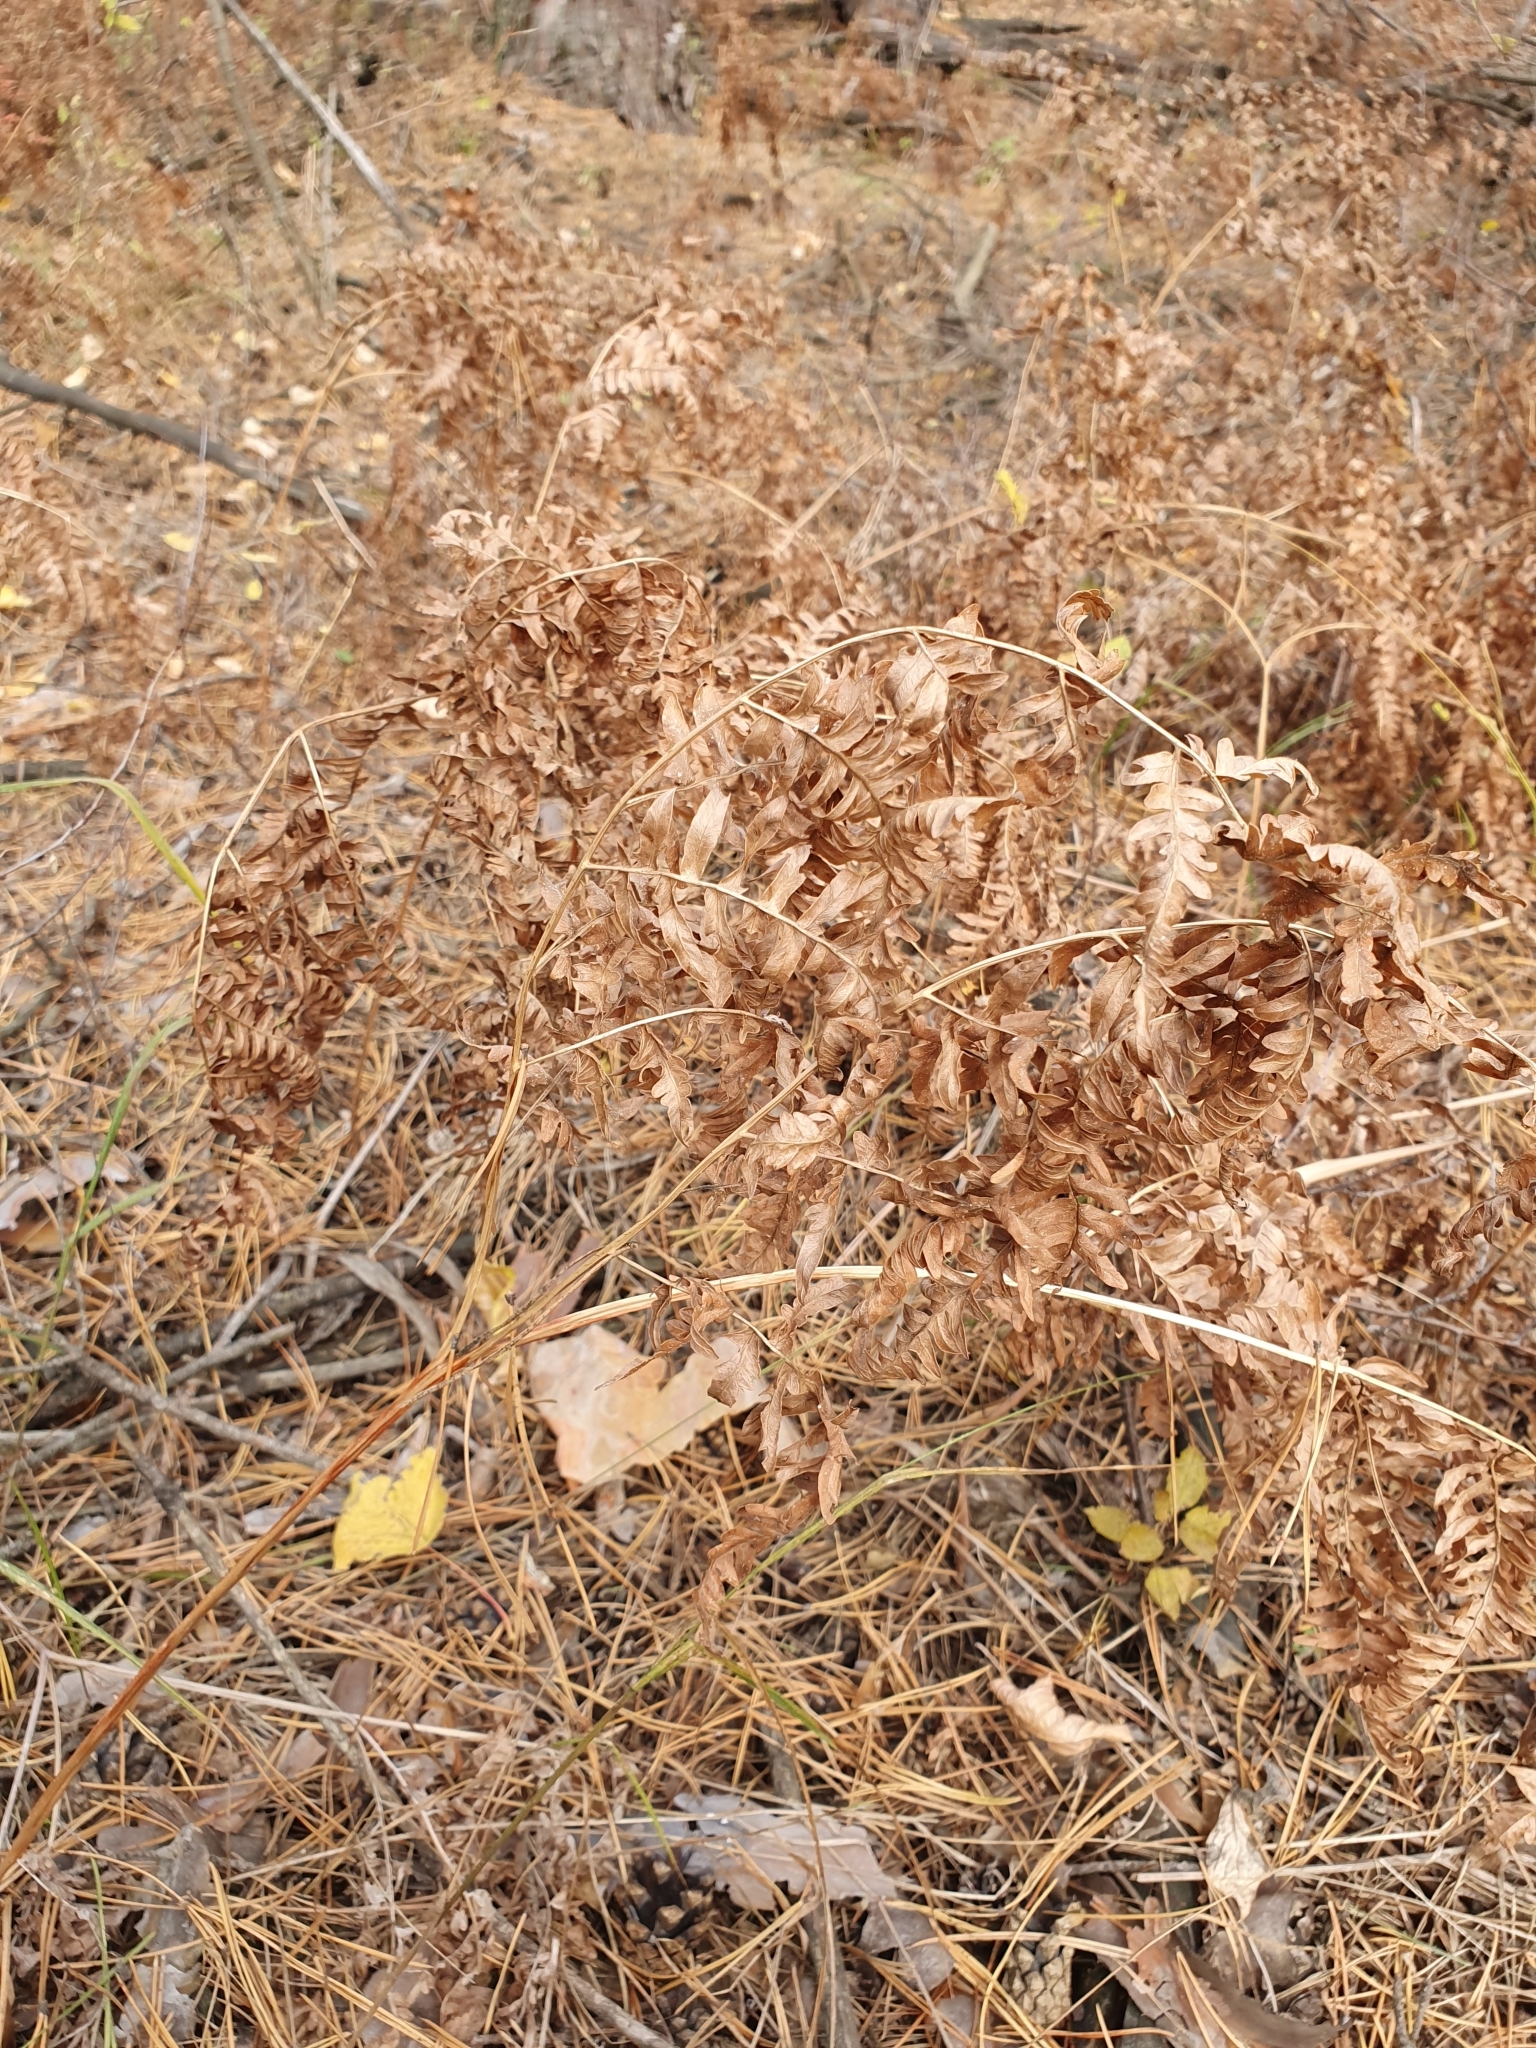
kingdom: Plantae
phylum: Tracheophyta
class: Polypodiopsida
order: Polypodiales
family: Dennstaedtiaceae
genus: Pteridium
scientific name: Pteridium aquilinum
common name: Bracken
